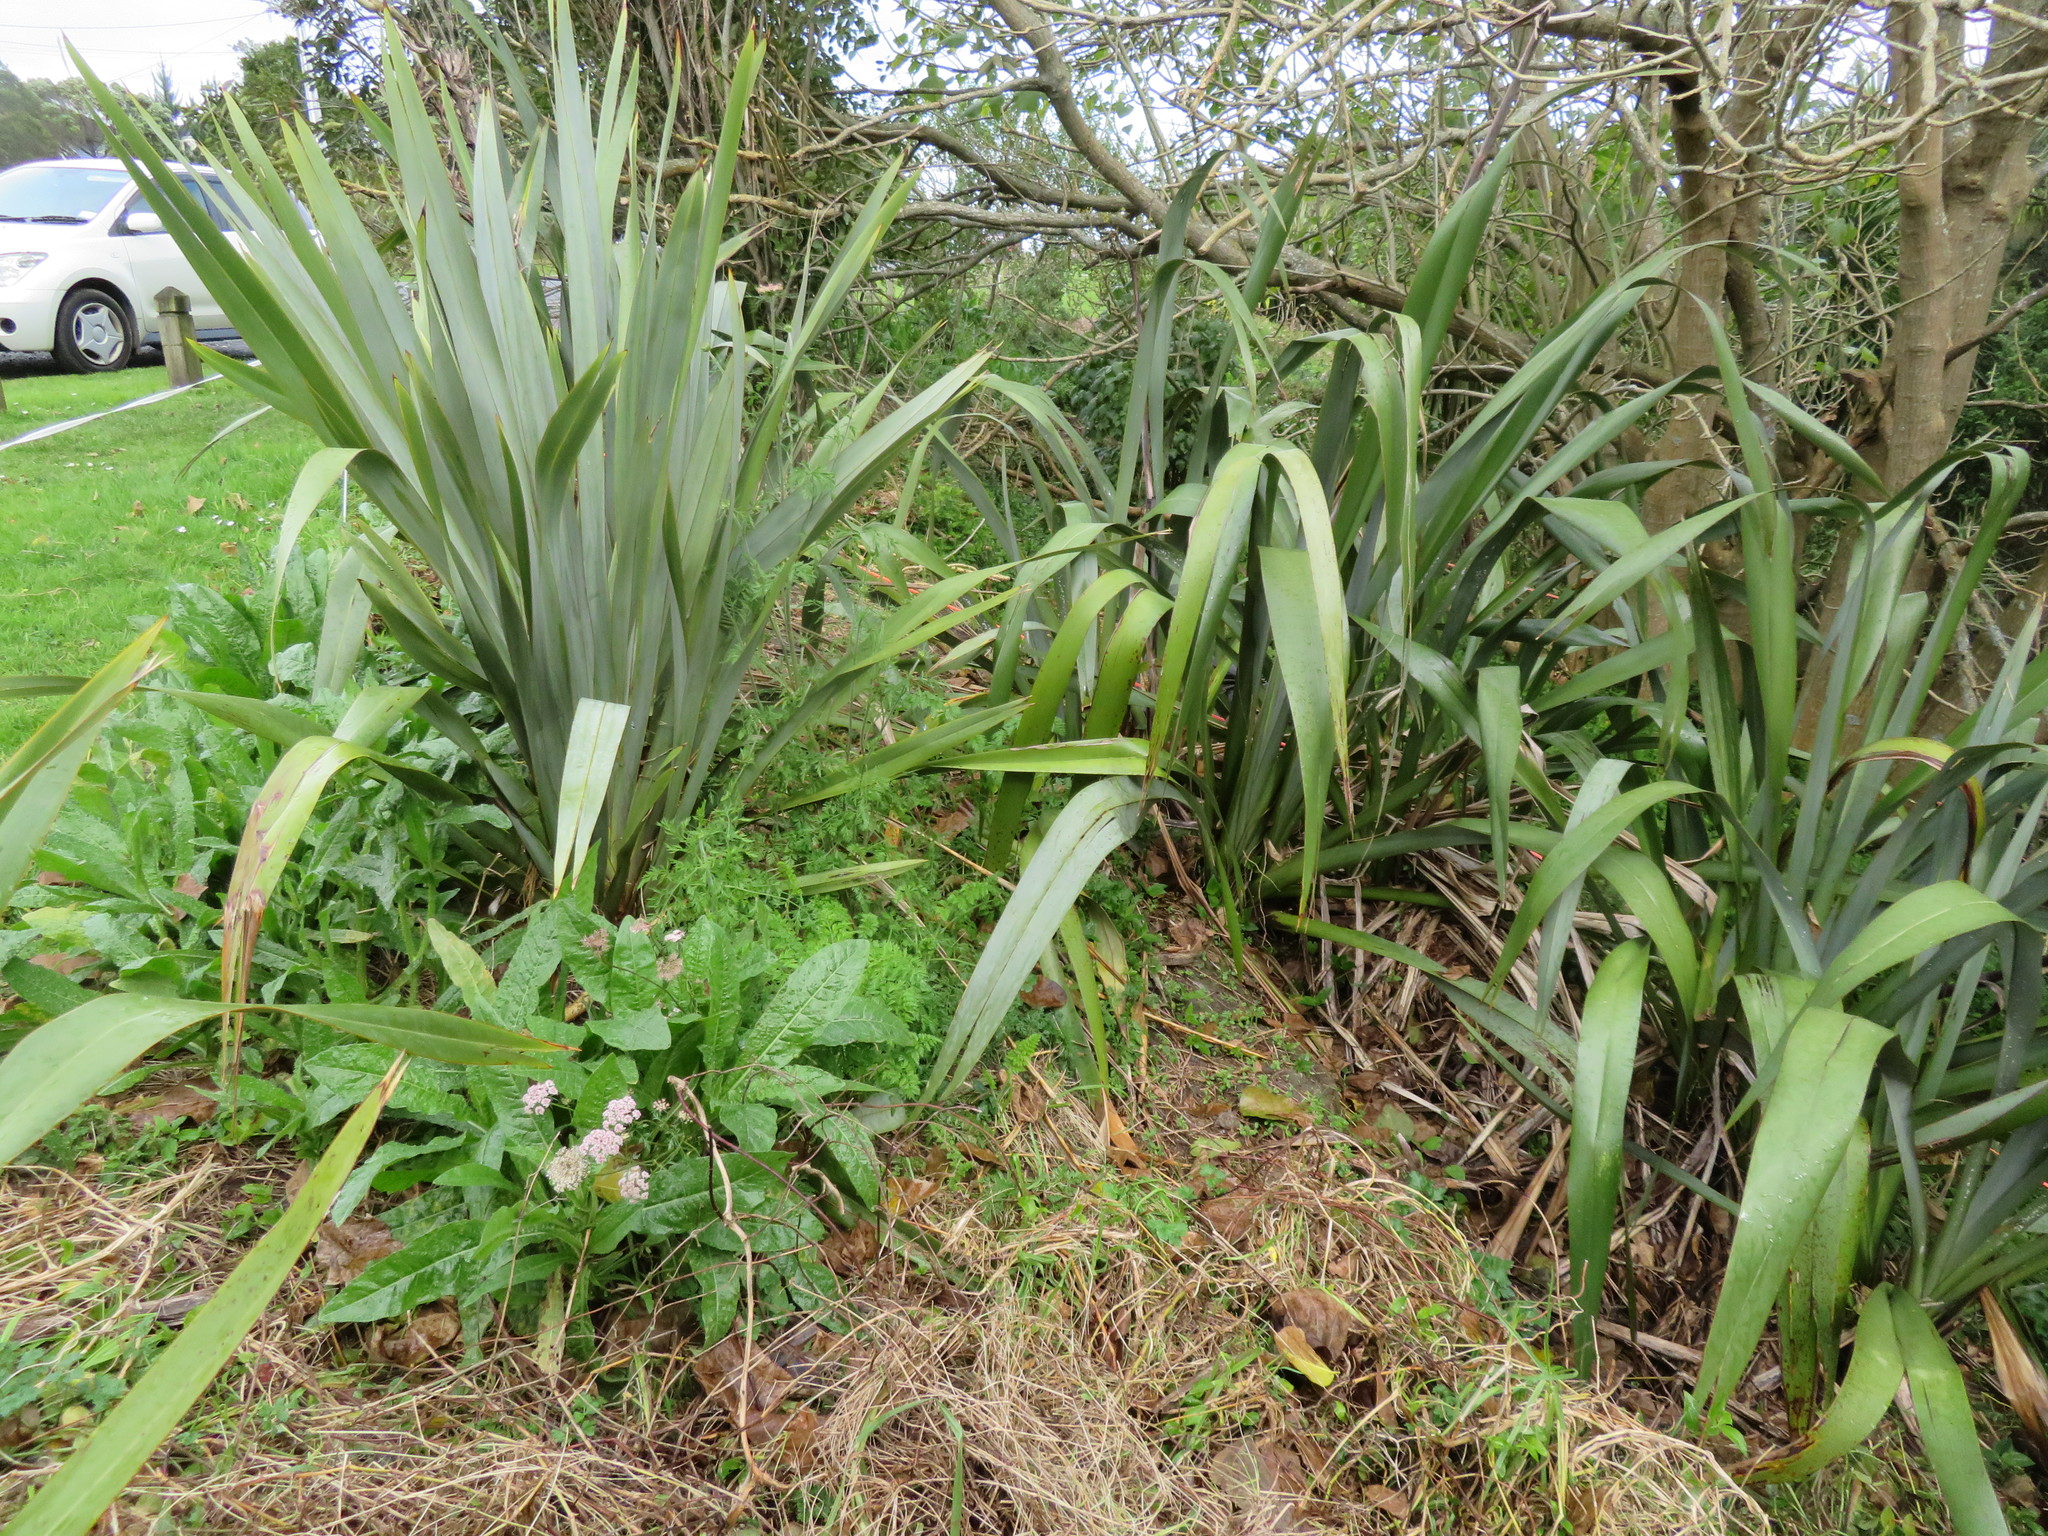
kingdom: Plantae
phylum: Tracheophyta
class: Magnoliopsida
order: Asterales
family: Asteraceae
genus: Helminthotheca
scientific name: Helminthotheca echioides
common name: Ox-tongue
